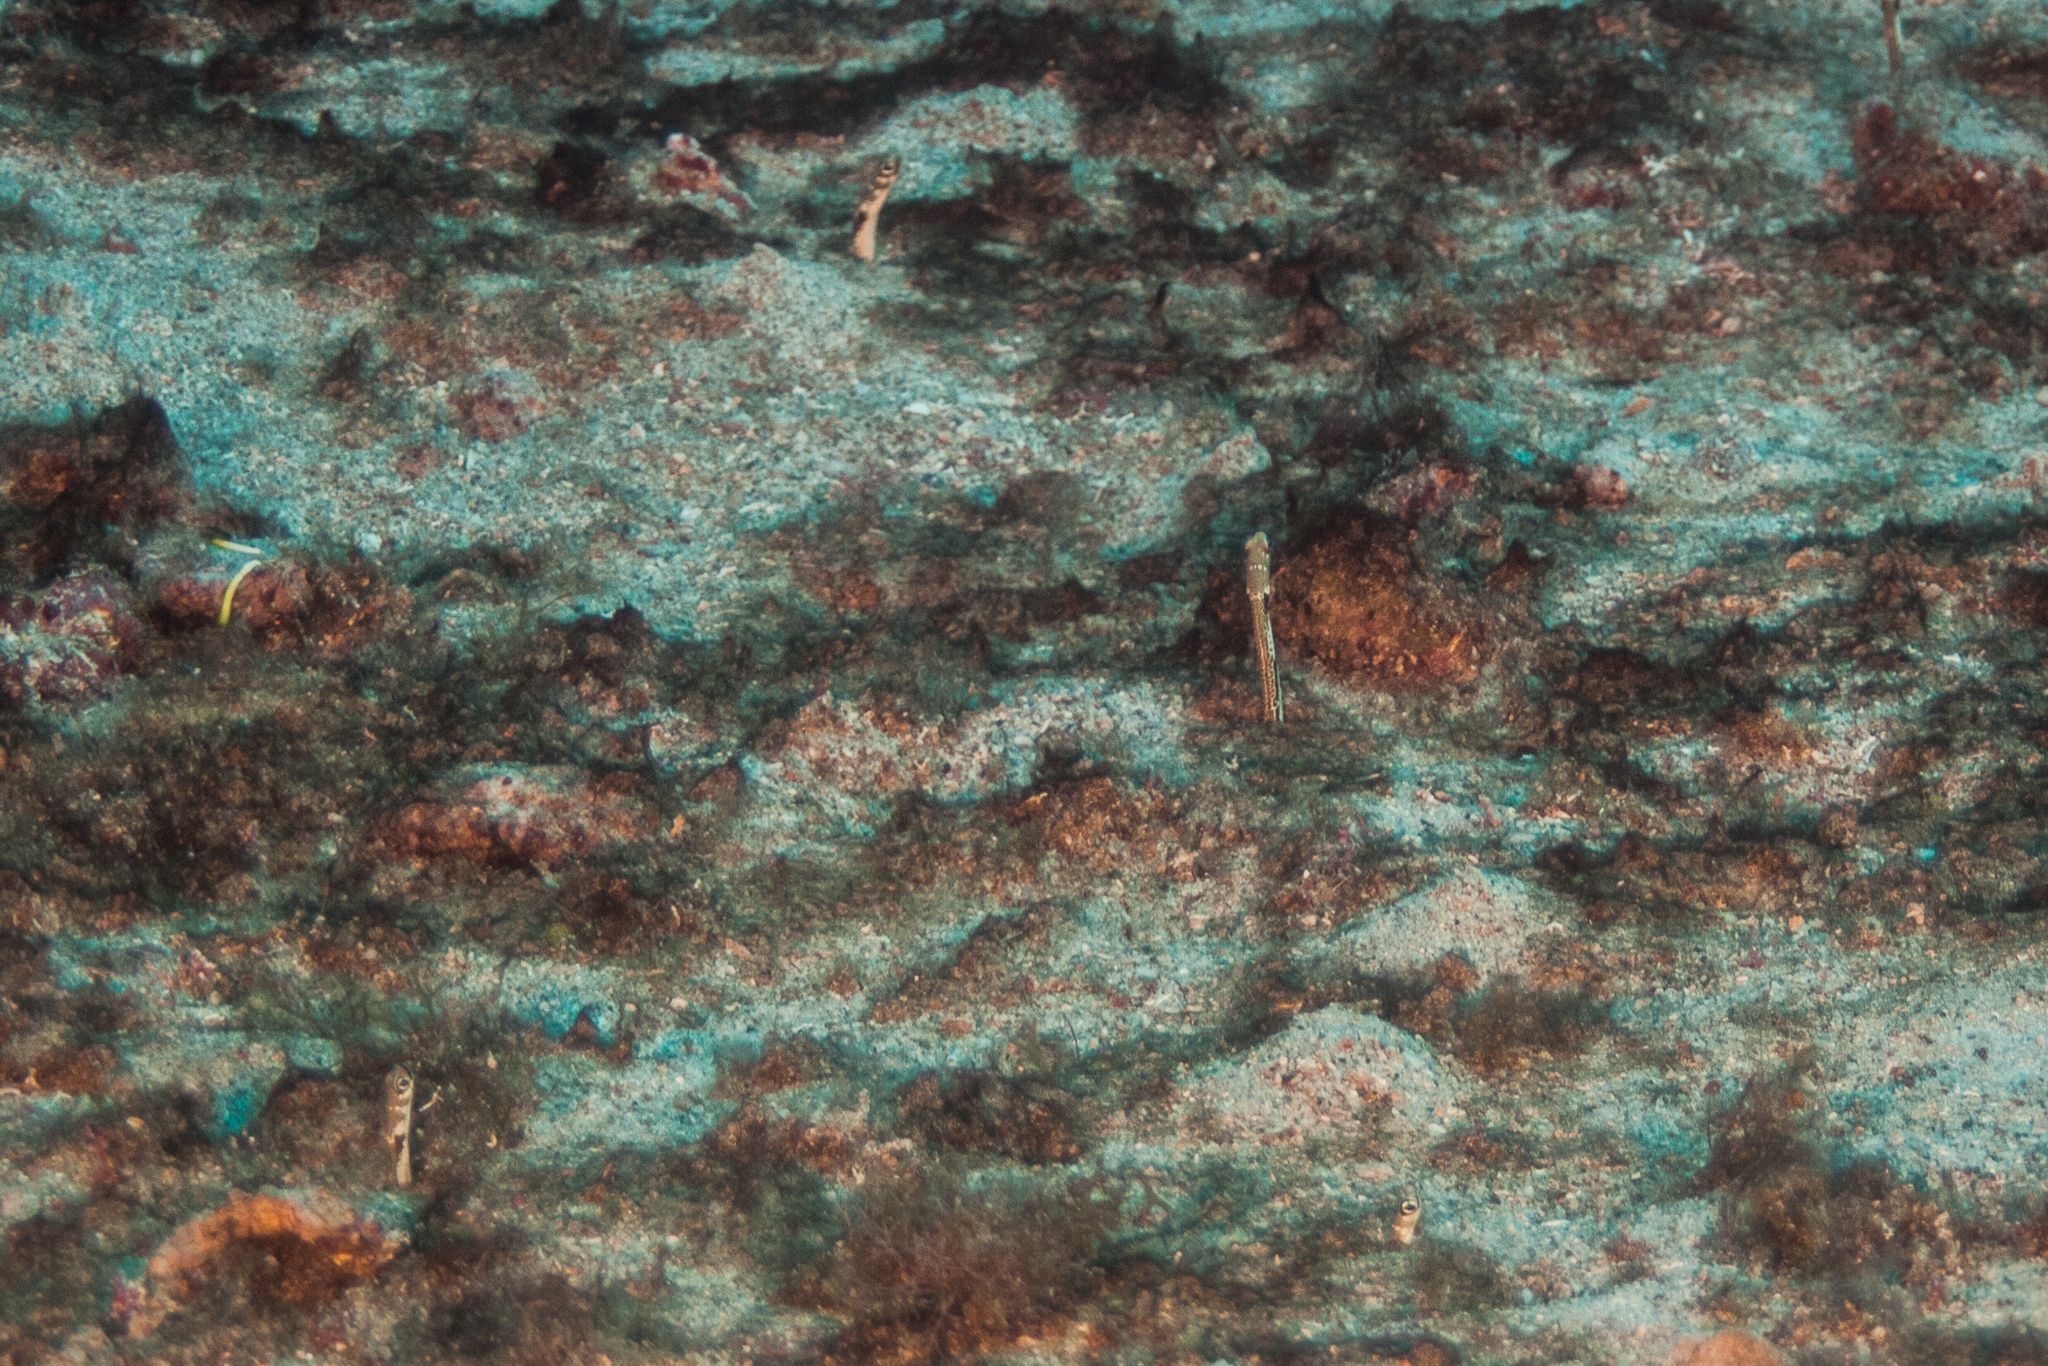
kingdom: Animalia
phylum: Chordata
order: Anguilliformes
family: Congridae
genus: Heteroconger
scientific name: Heteroconger camelopardalis
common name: Giraffe-spotted garden eel
